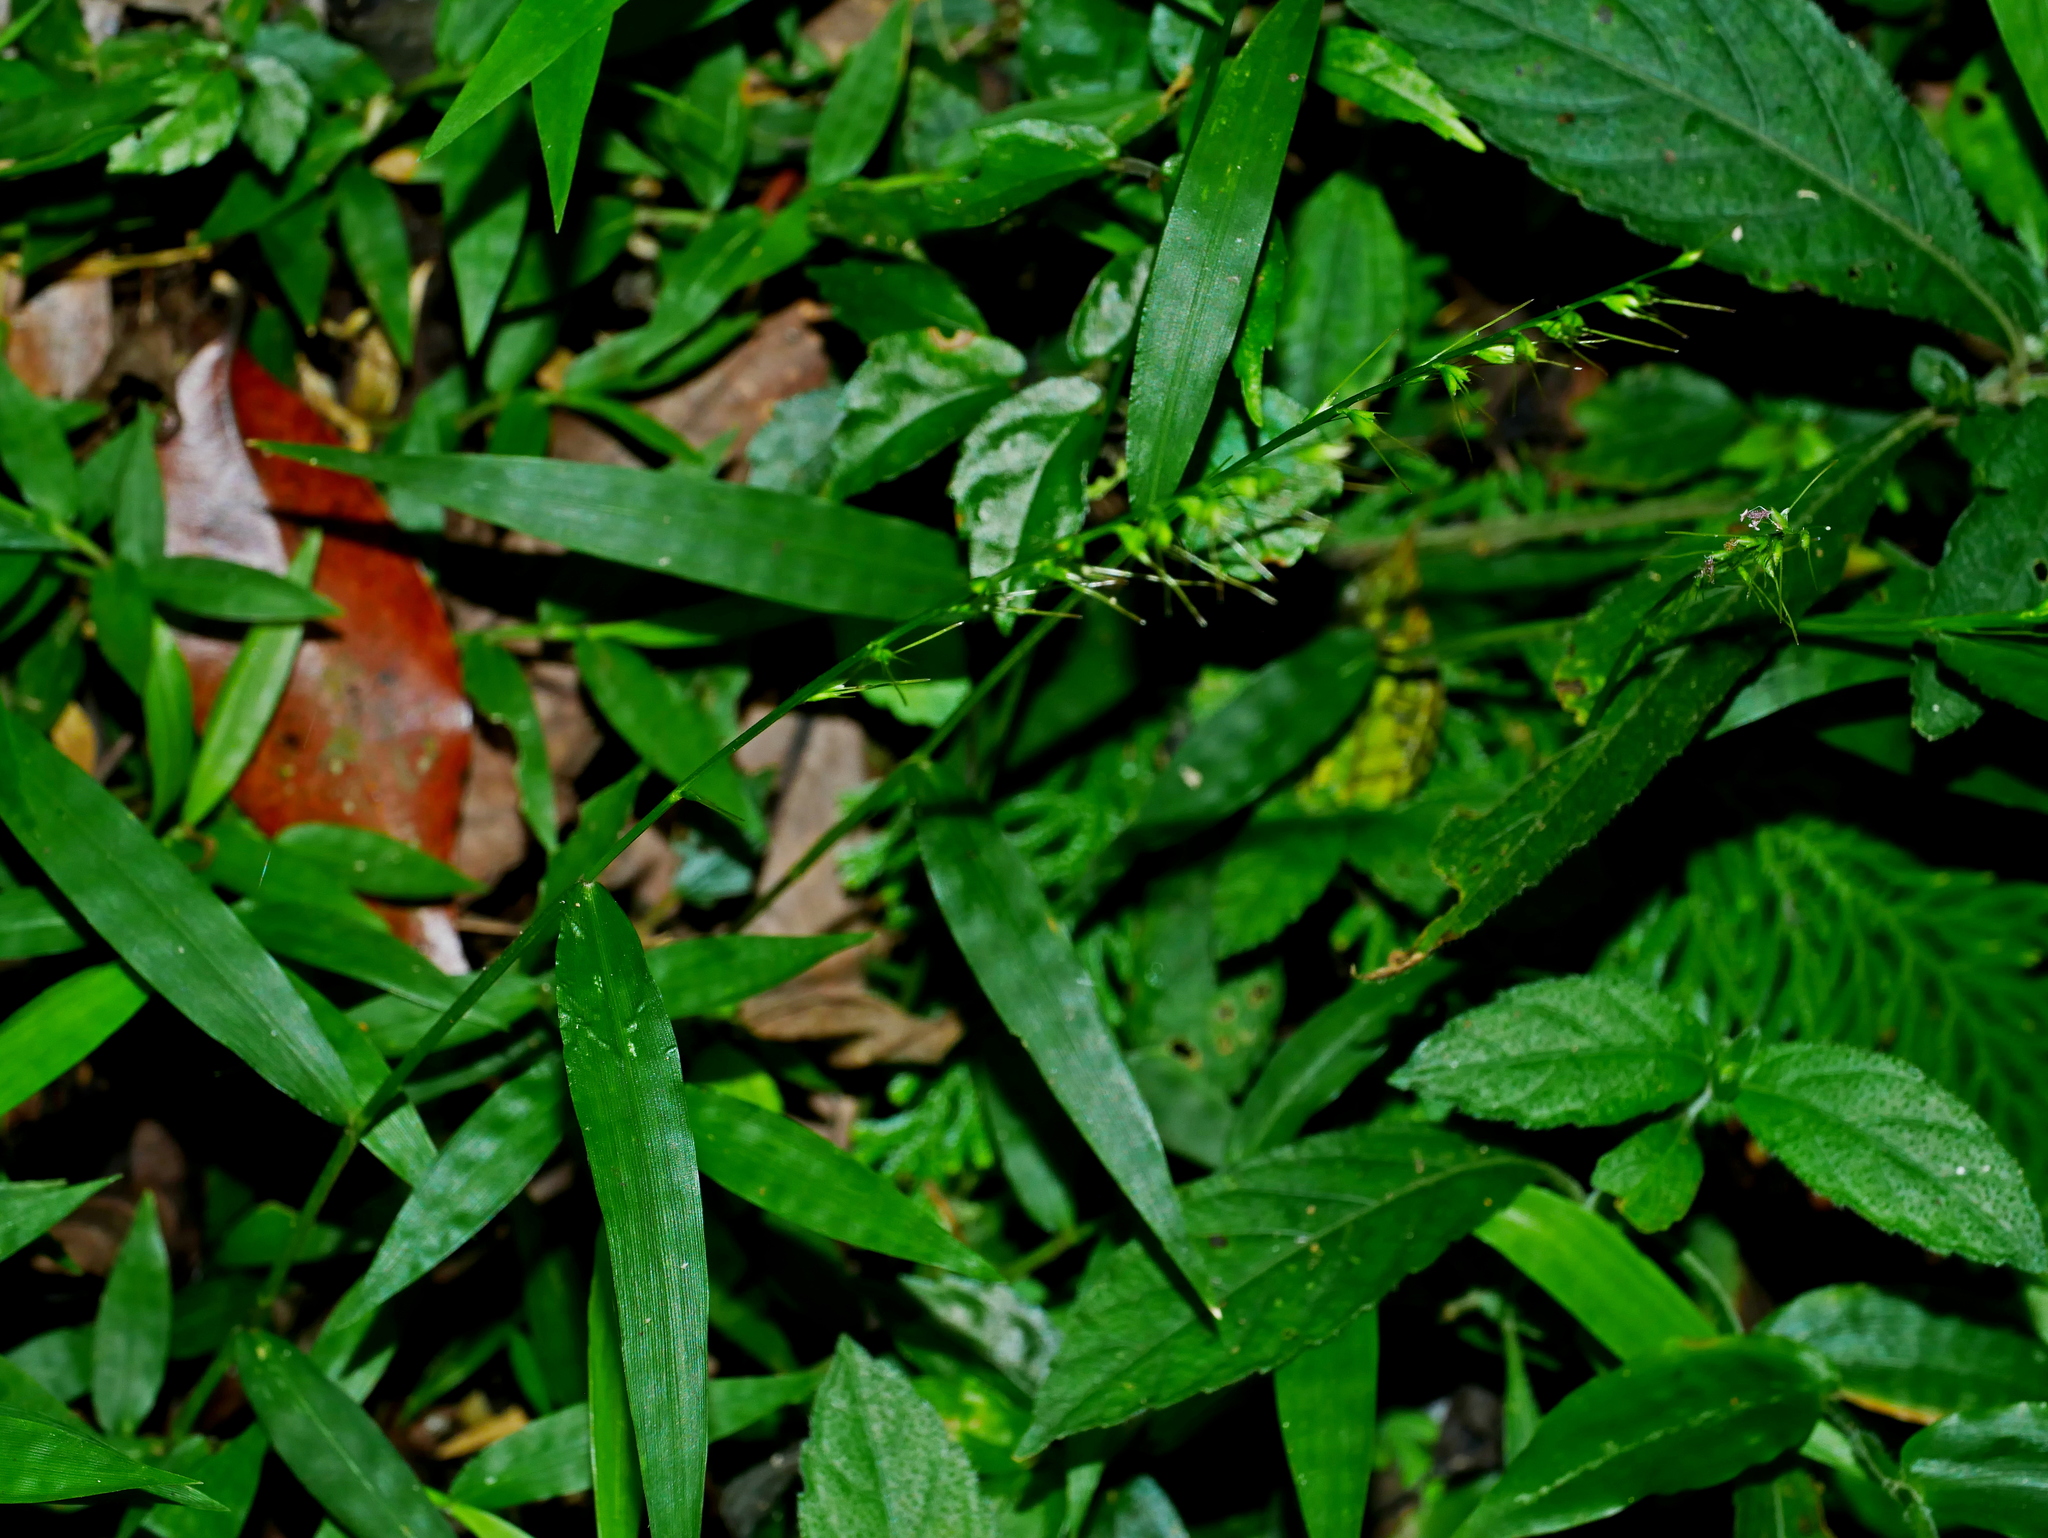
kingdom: Plantae
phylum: Tracheophyta
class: Liliopsida
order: Poales
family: Poaceae
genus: Oplismenus
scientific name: Oplismenus hirtellus
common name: Basketgrass
